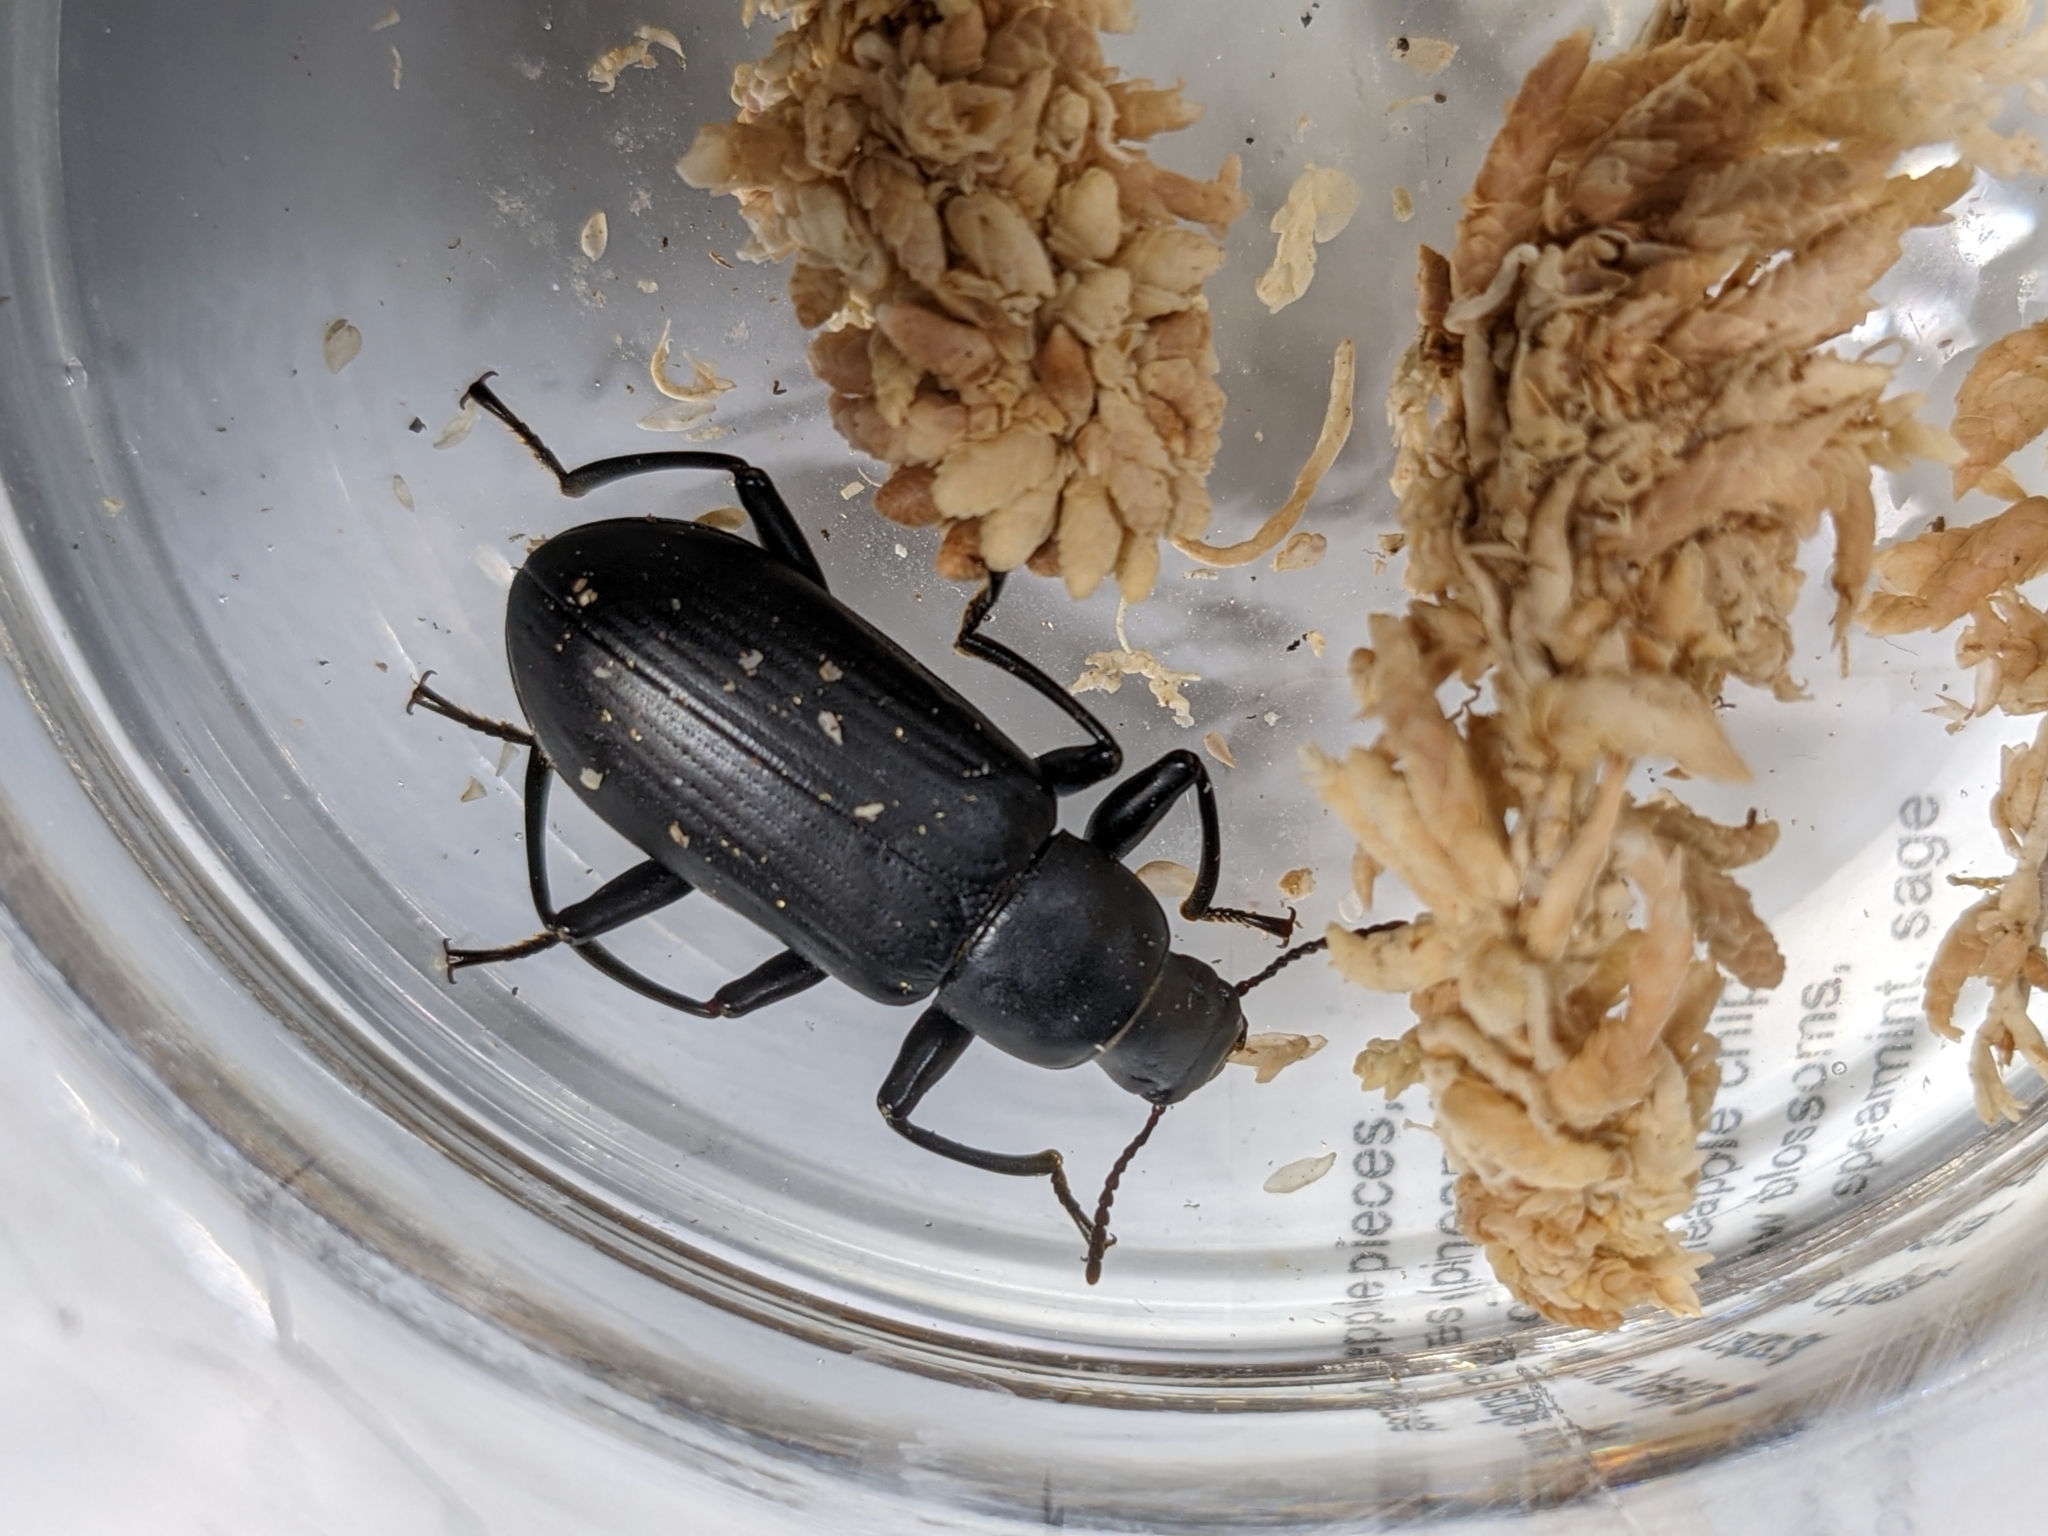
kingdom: Animalia
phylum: Arthropoda
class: Insecta
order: Coleoptera
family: Tenebrionidae
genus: Merinus
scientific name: Merinus laevis
